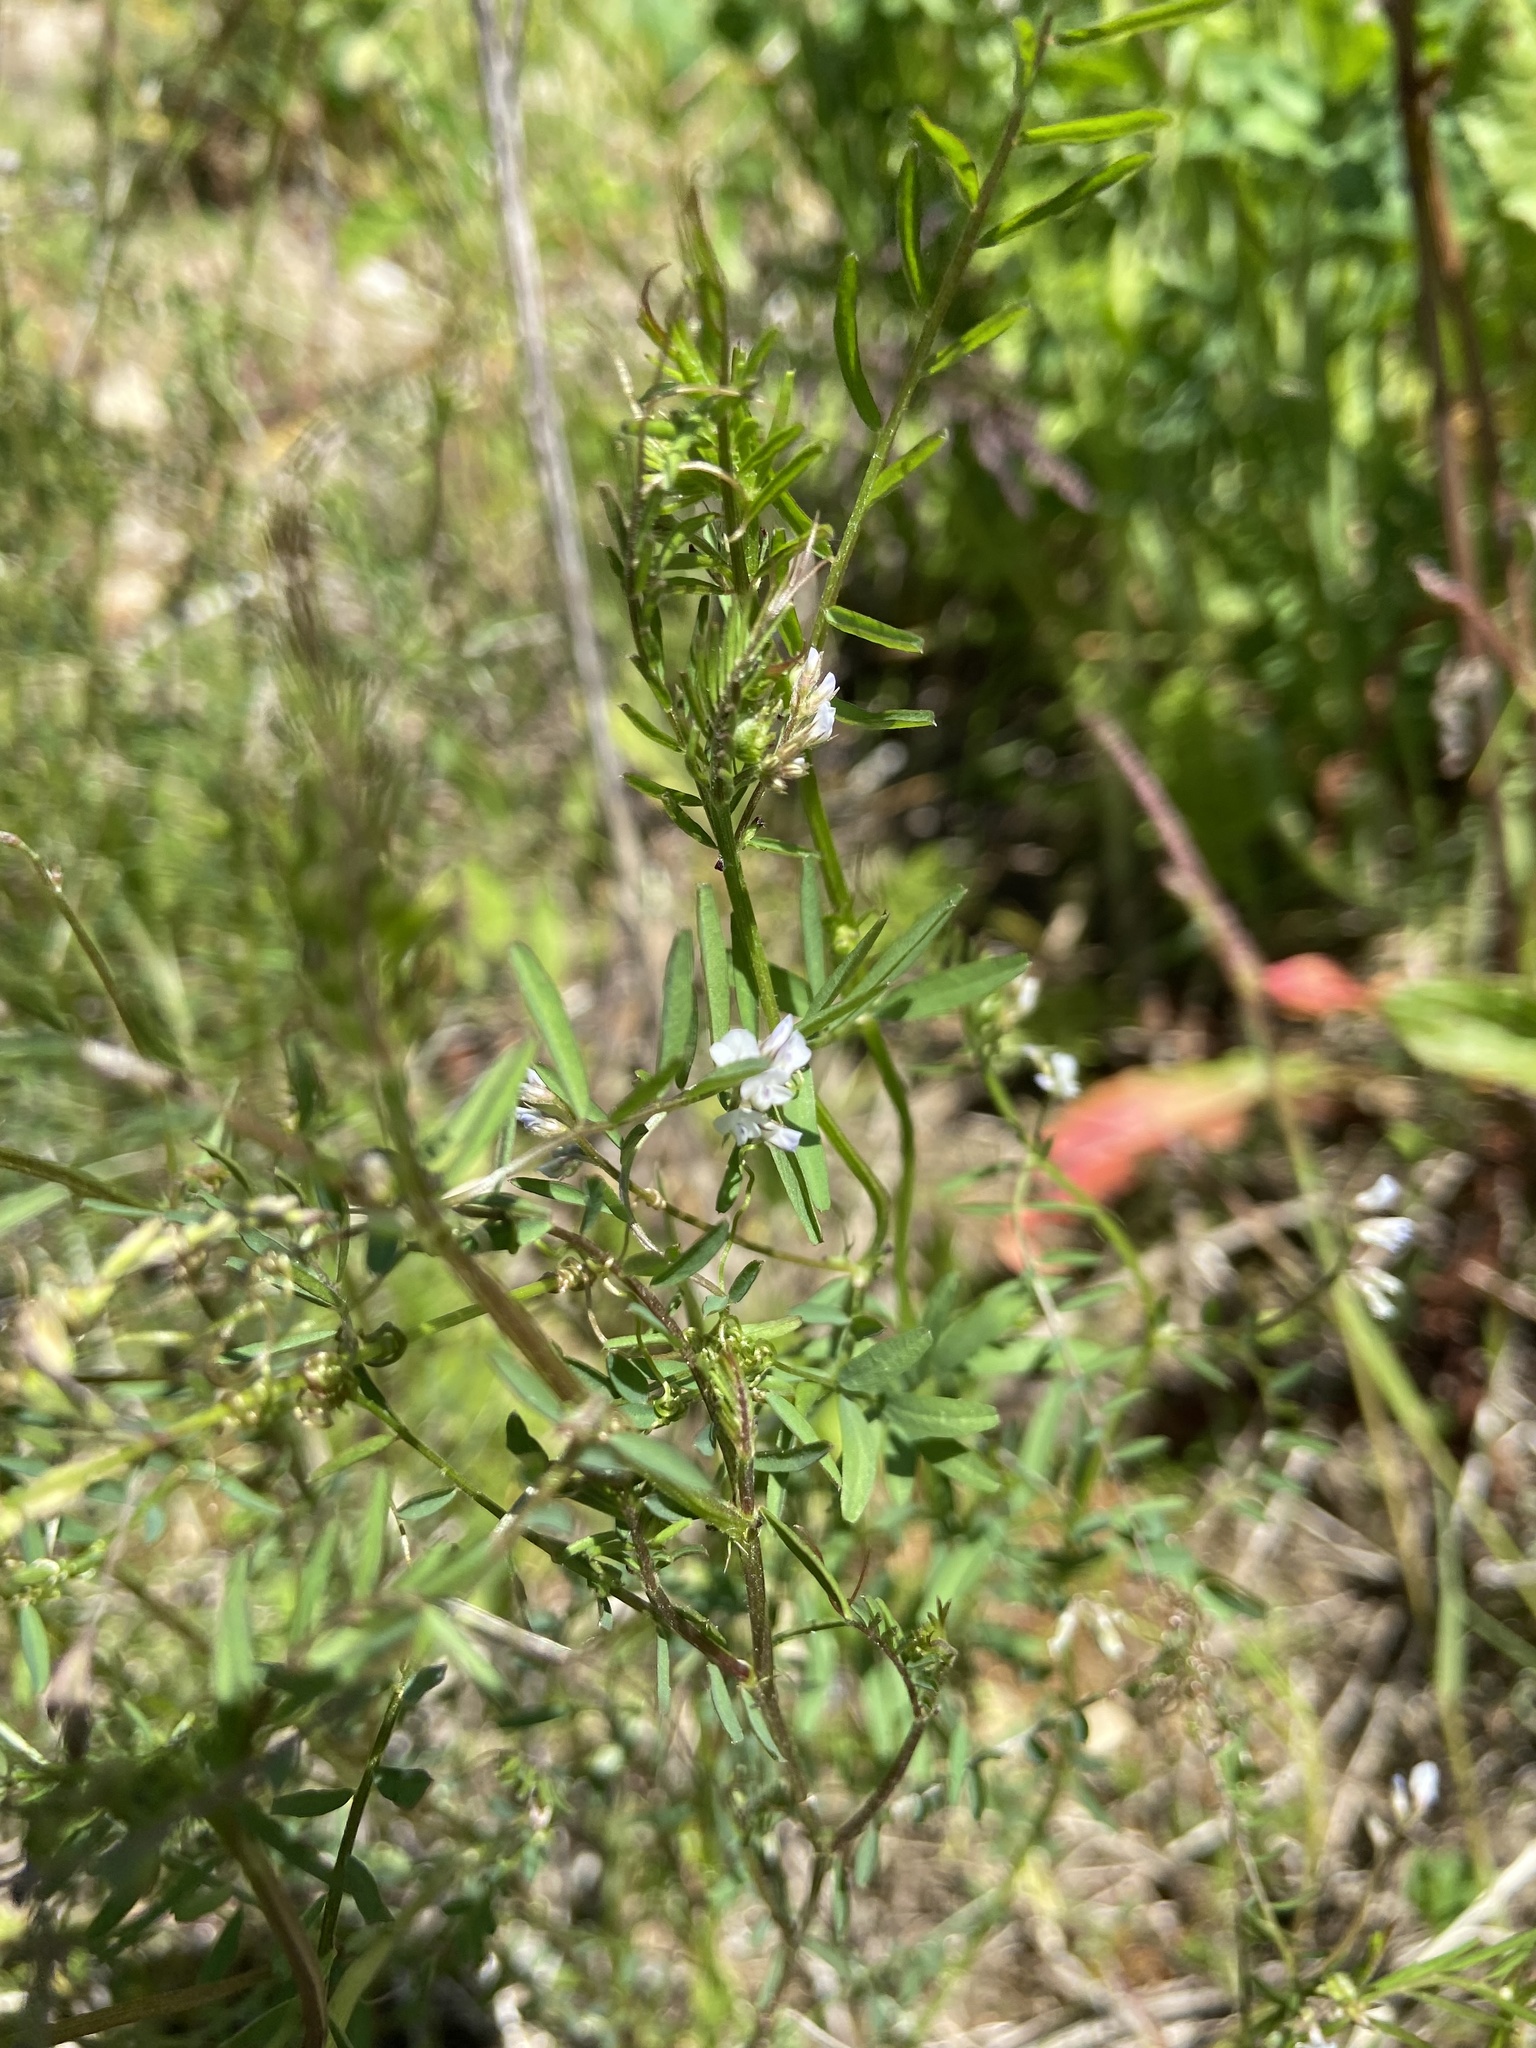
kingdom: Plantae
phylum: Tracheophyta
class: Magnoliopsida
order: Fabales
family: Fabaceae
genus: Vicia
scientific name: Vicia hirsuta
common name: Tiny vetch
